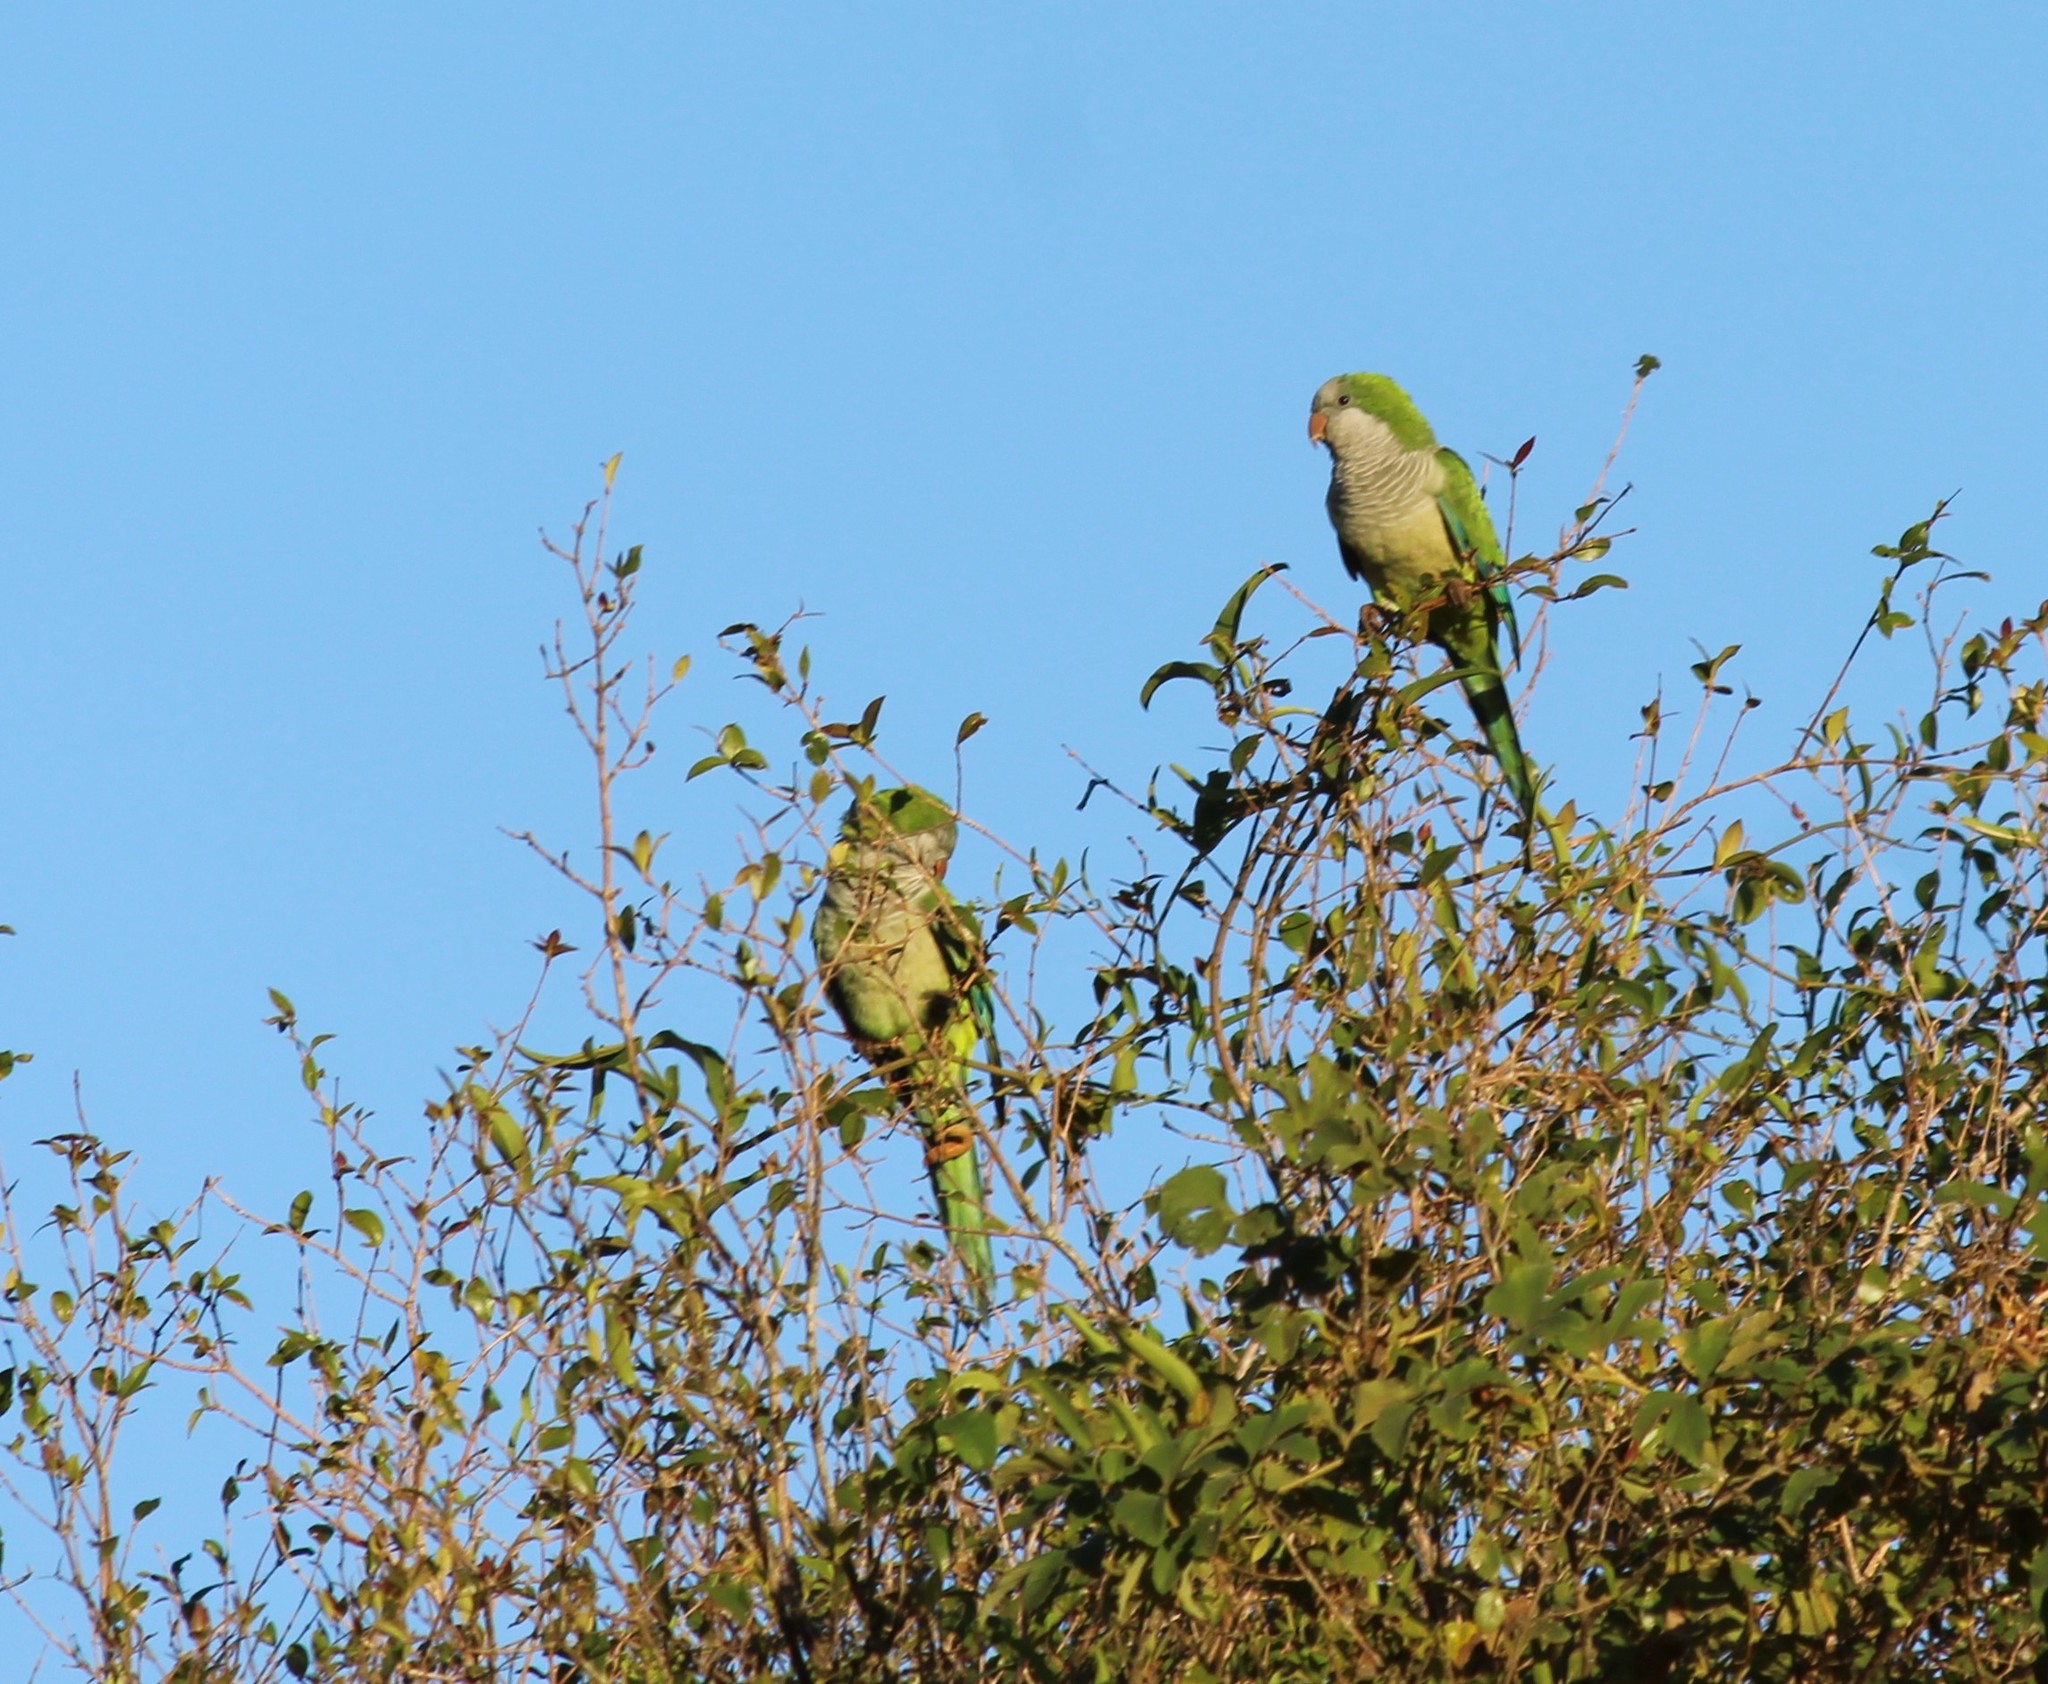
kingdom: Animalia
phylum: Chordata
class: Aves
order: Psittaciformes
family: Psittacidae
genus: Myiopsitta
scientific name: Myiopsitta monachus
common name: Monk parakeet
